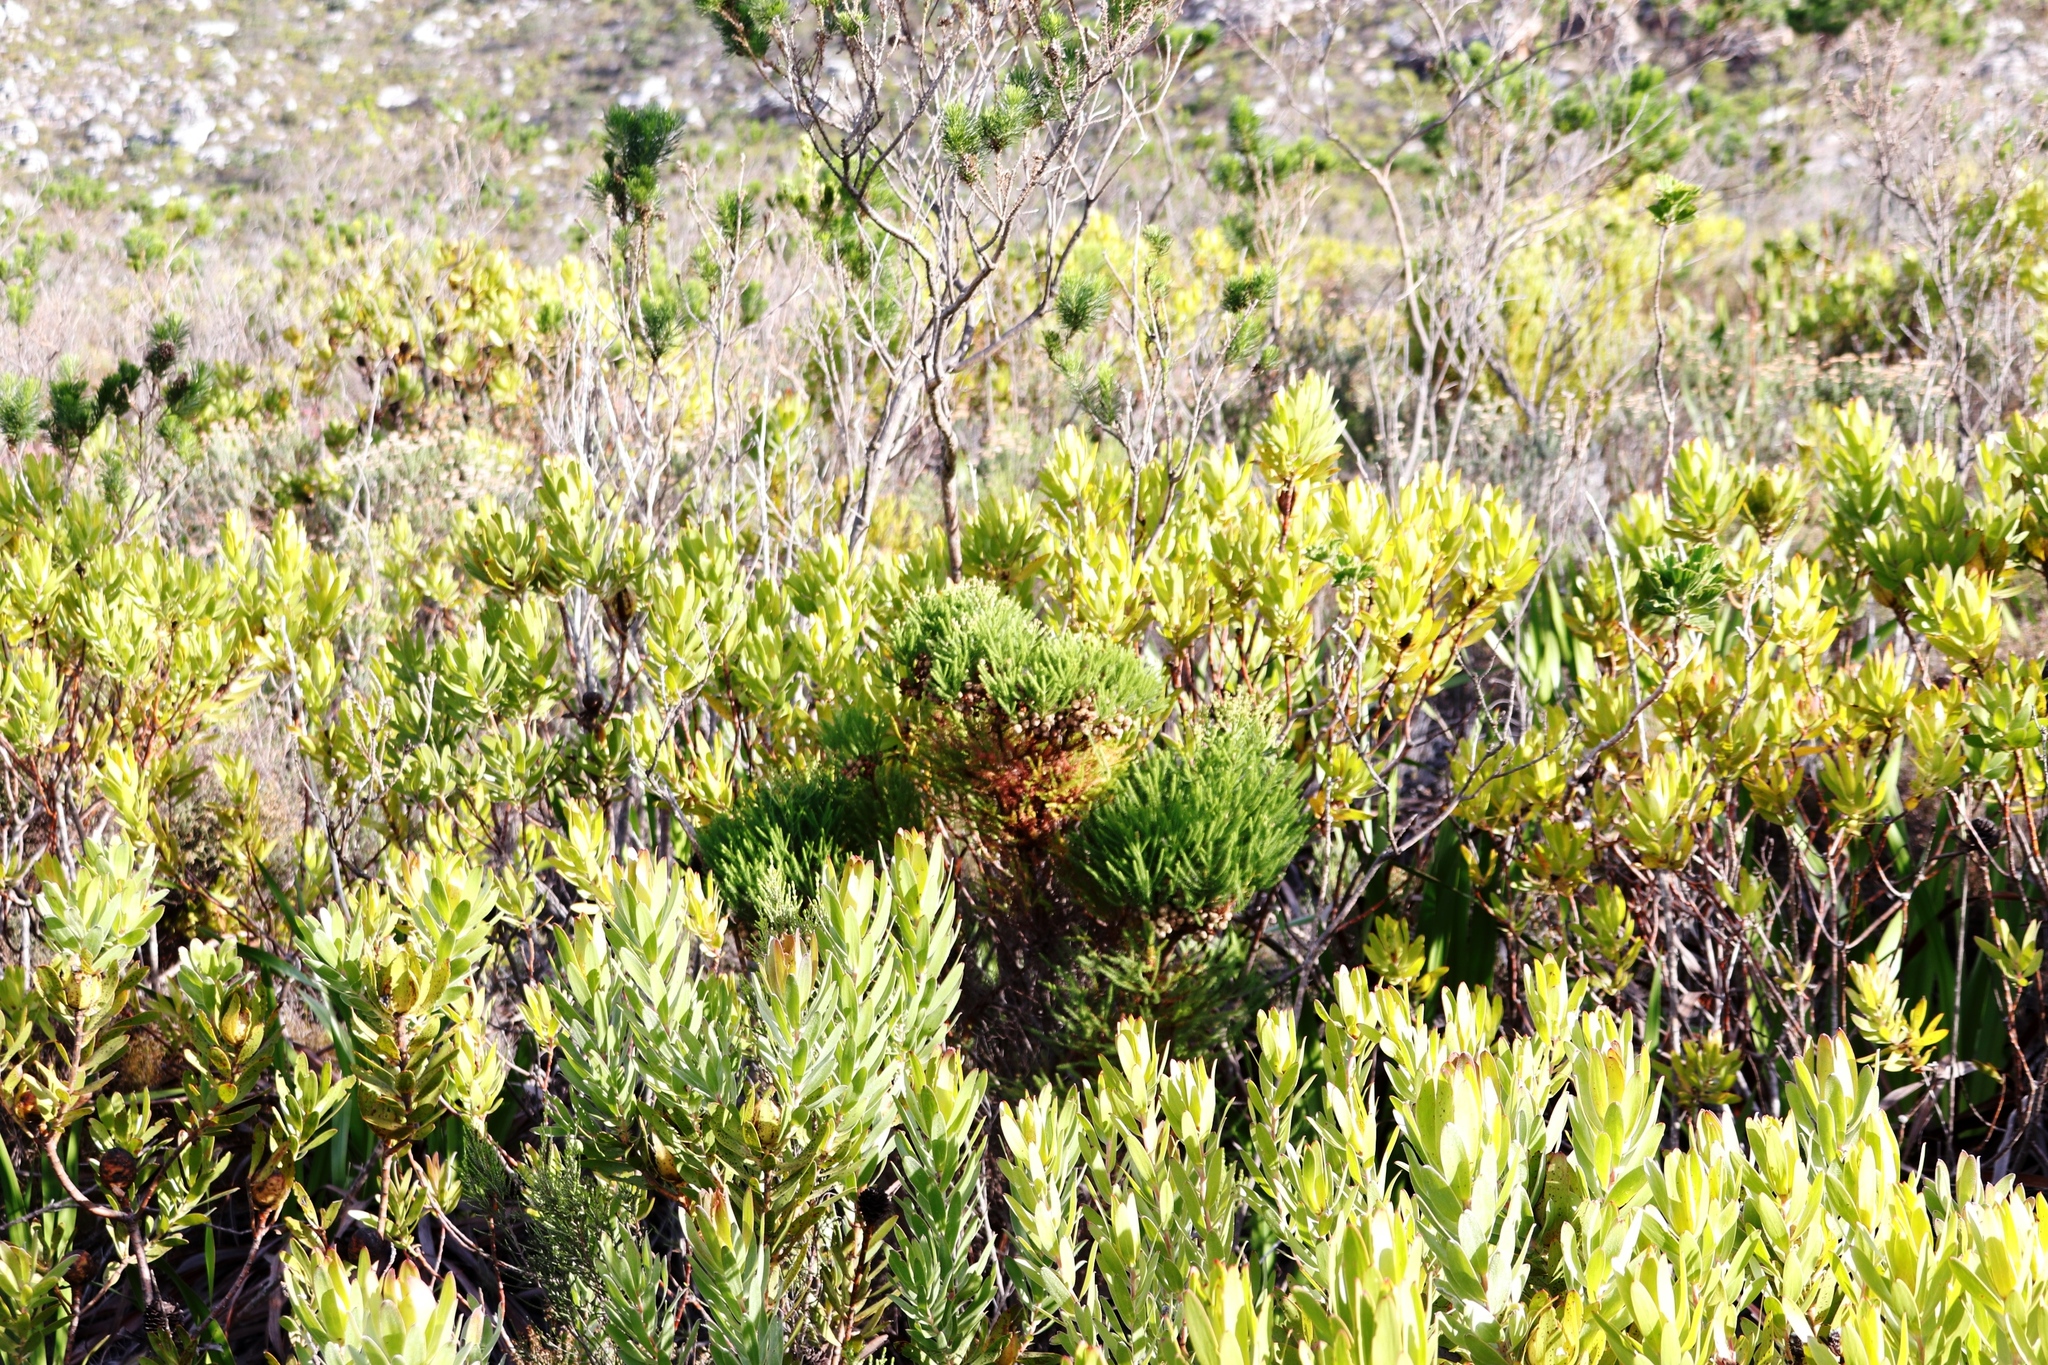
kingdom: Plantae
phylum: Tracheophyta
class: Magnoliopsida
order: Bruniales
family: Bruniaceae
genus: Berzelia
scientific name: Berzelia lanuginosa
